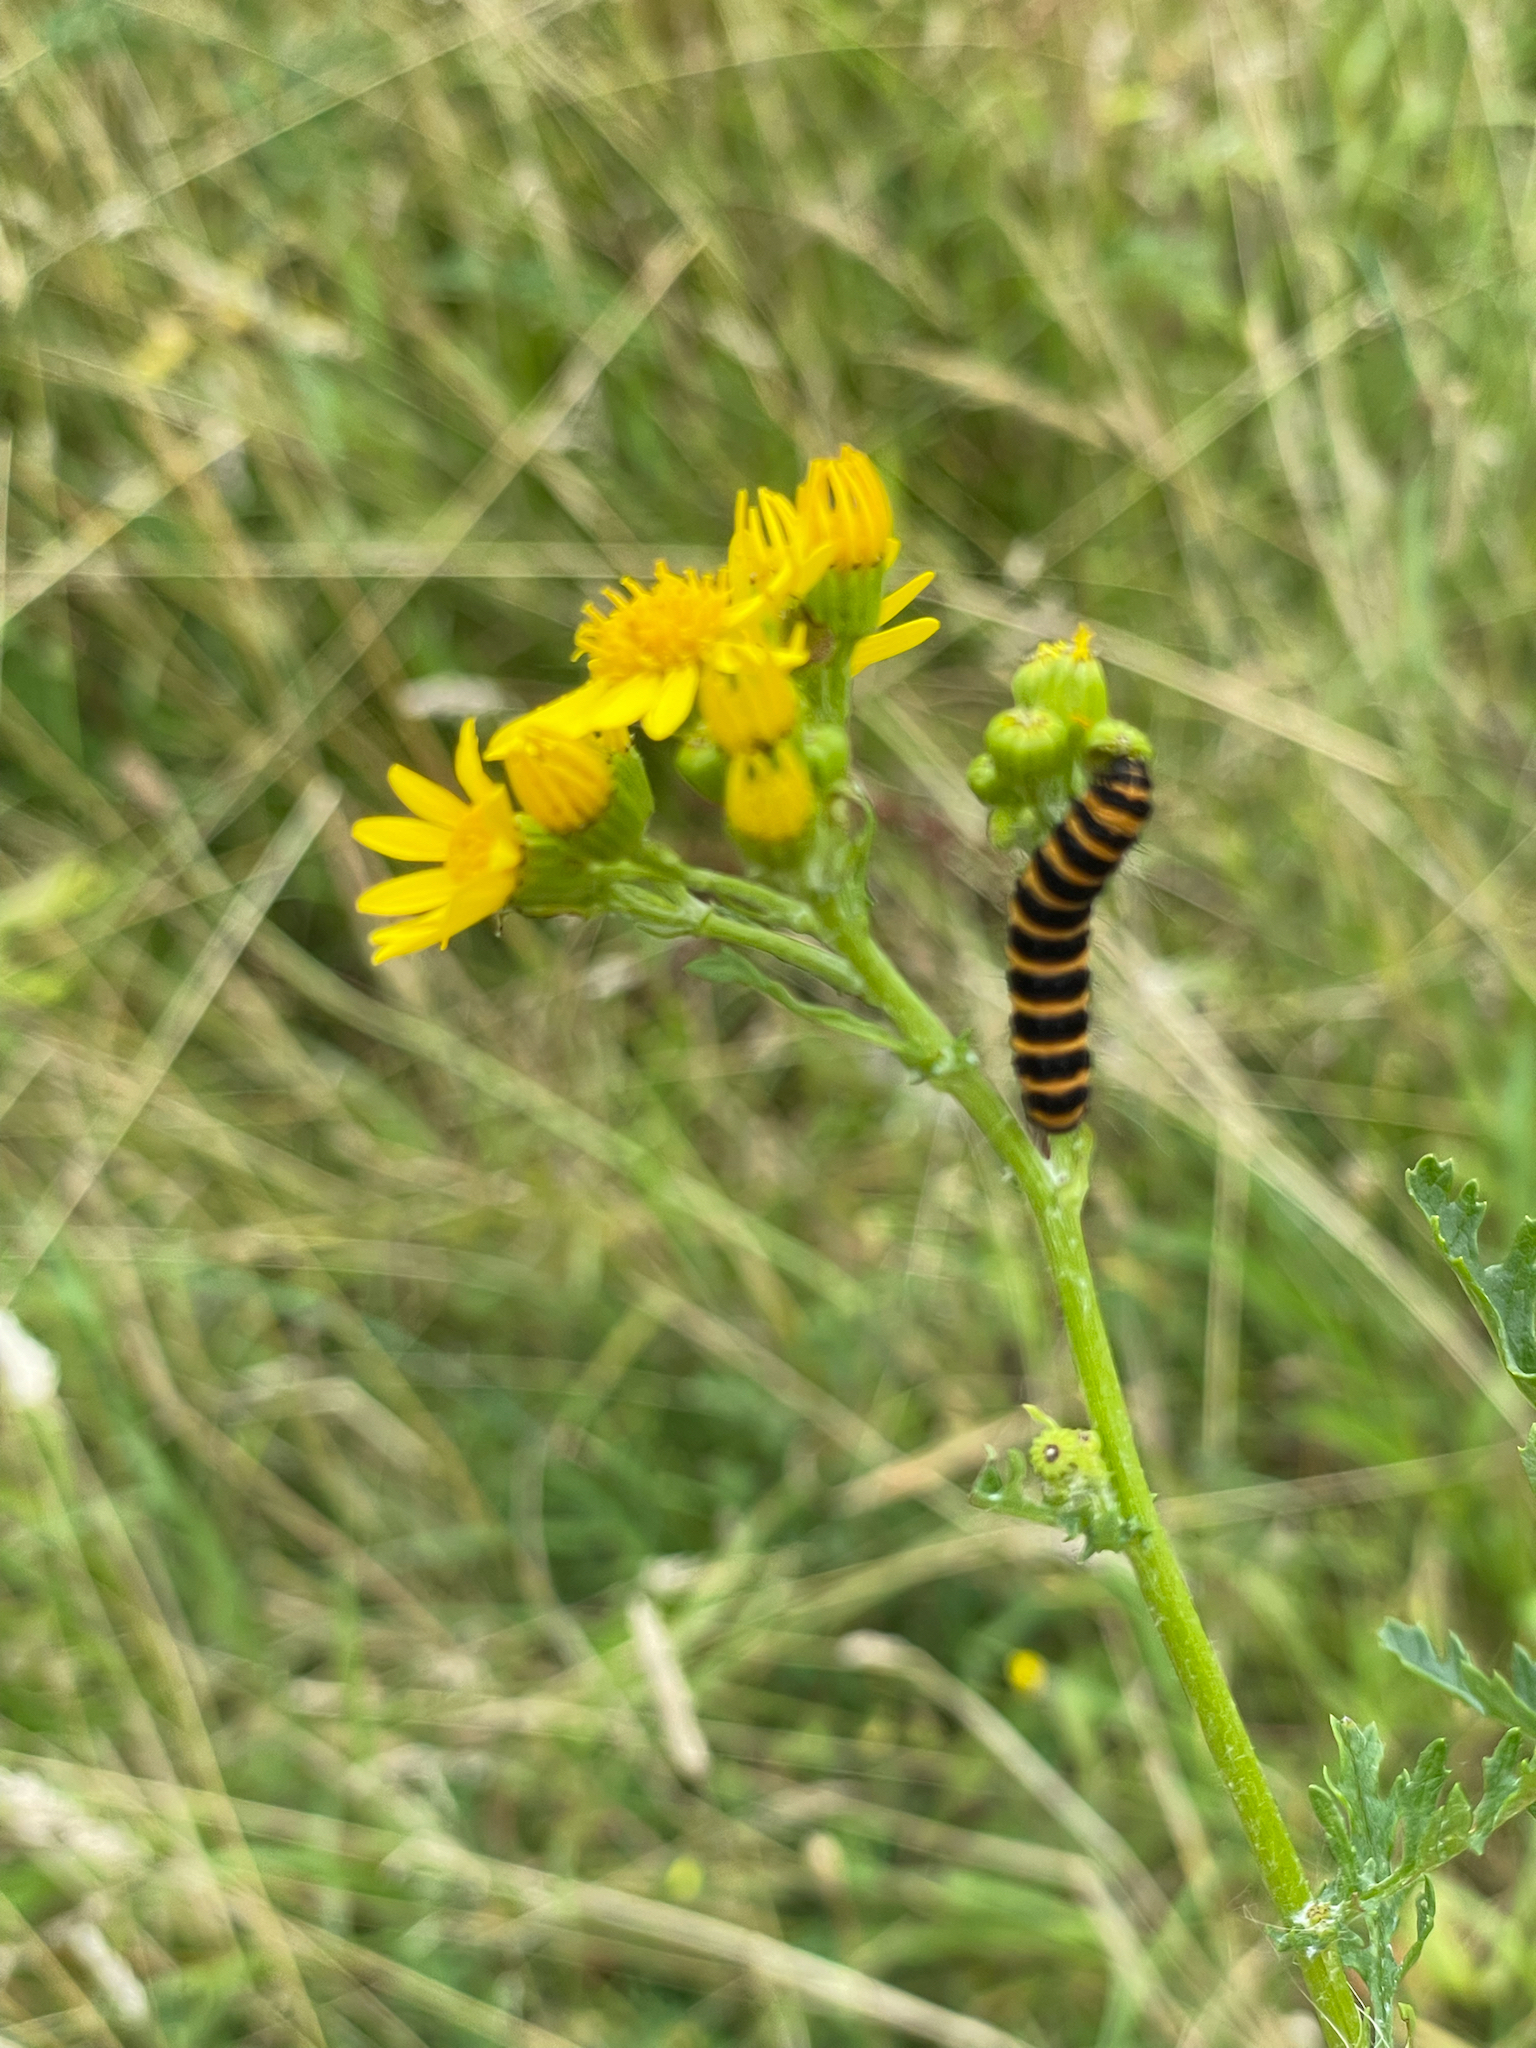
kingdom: Animalia
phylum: Arthropoda
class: Insecta
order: Lepidoptera
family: Erebidae
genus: Tyria
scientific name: Tyria jacobaeae
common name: Cinnabar
